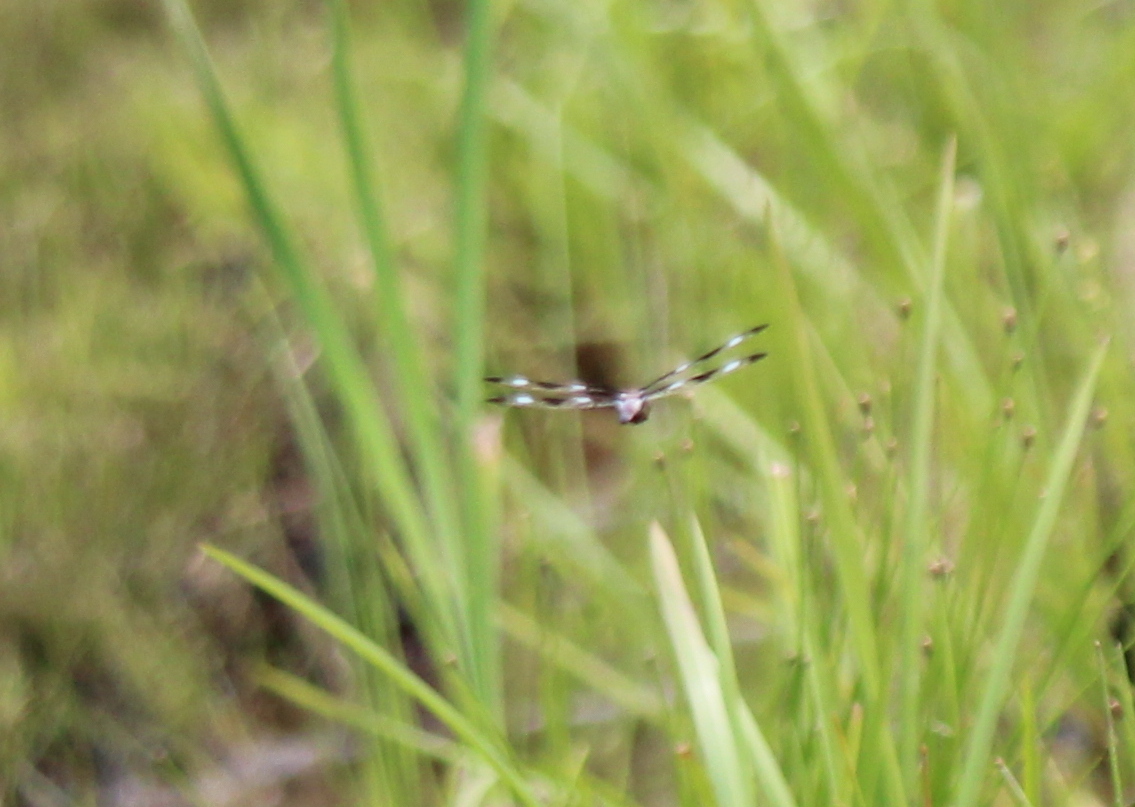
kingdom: Animalia
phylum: Arthropoda
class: Insecta
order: Odonata
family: Libellulidae
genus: Libellula
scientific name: Libellula pulchella
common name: Twelve-spotted skimmer
